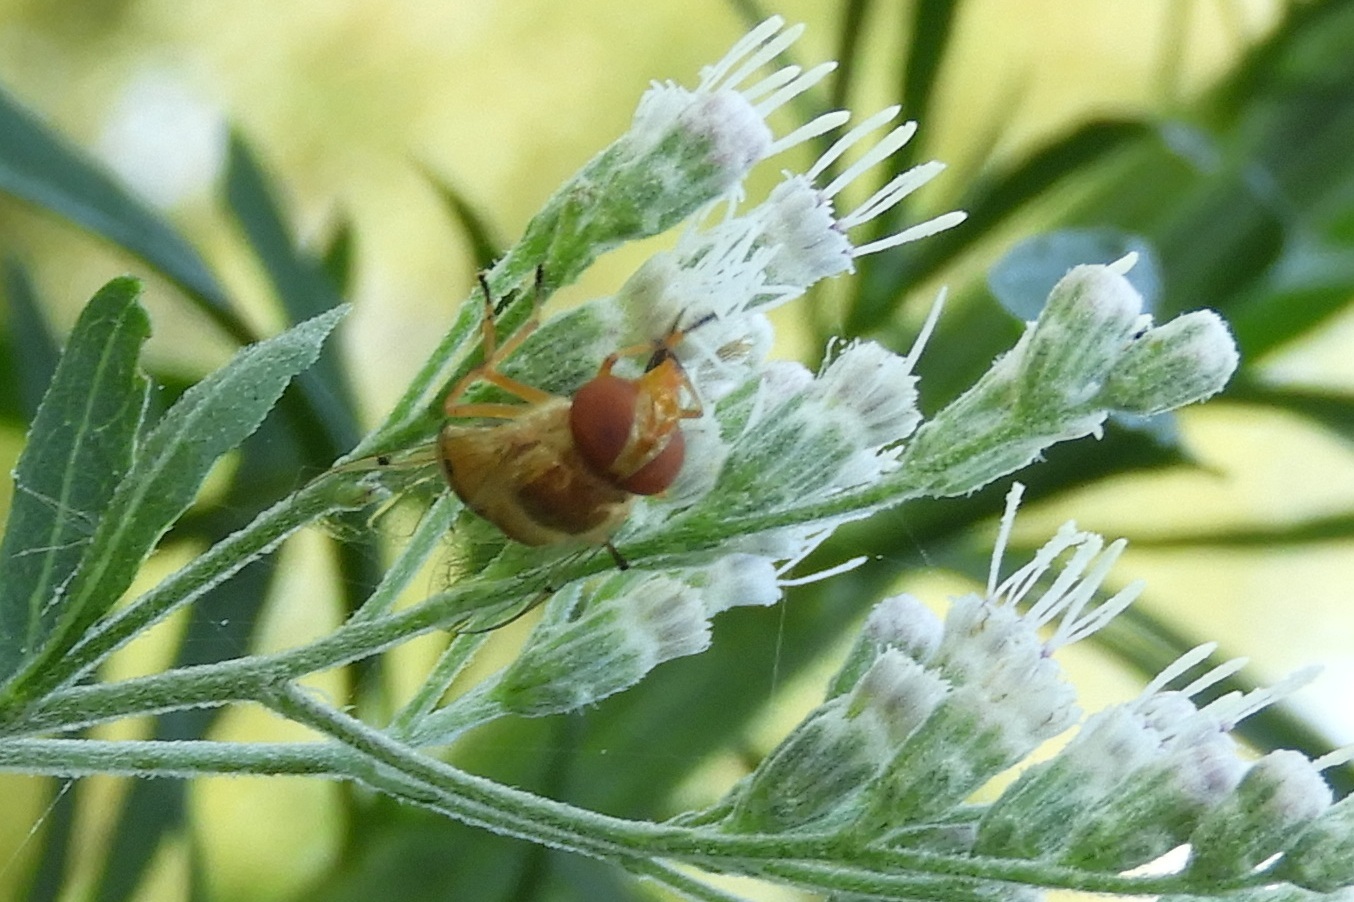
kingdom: Animalia
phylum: Arthropoda
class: Insecta
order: Diptera
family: Syrphidae
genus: Copestylum
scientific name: Copestylum sexmaculatum
